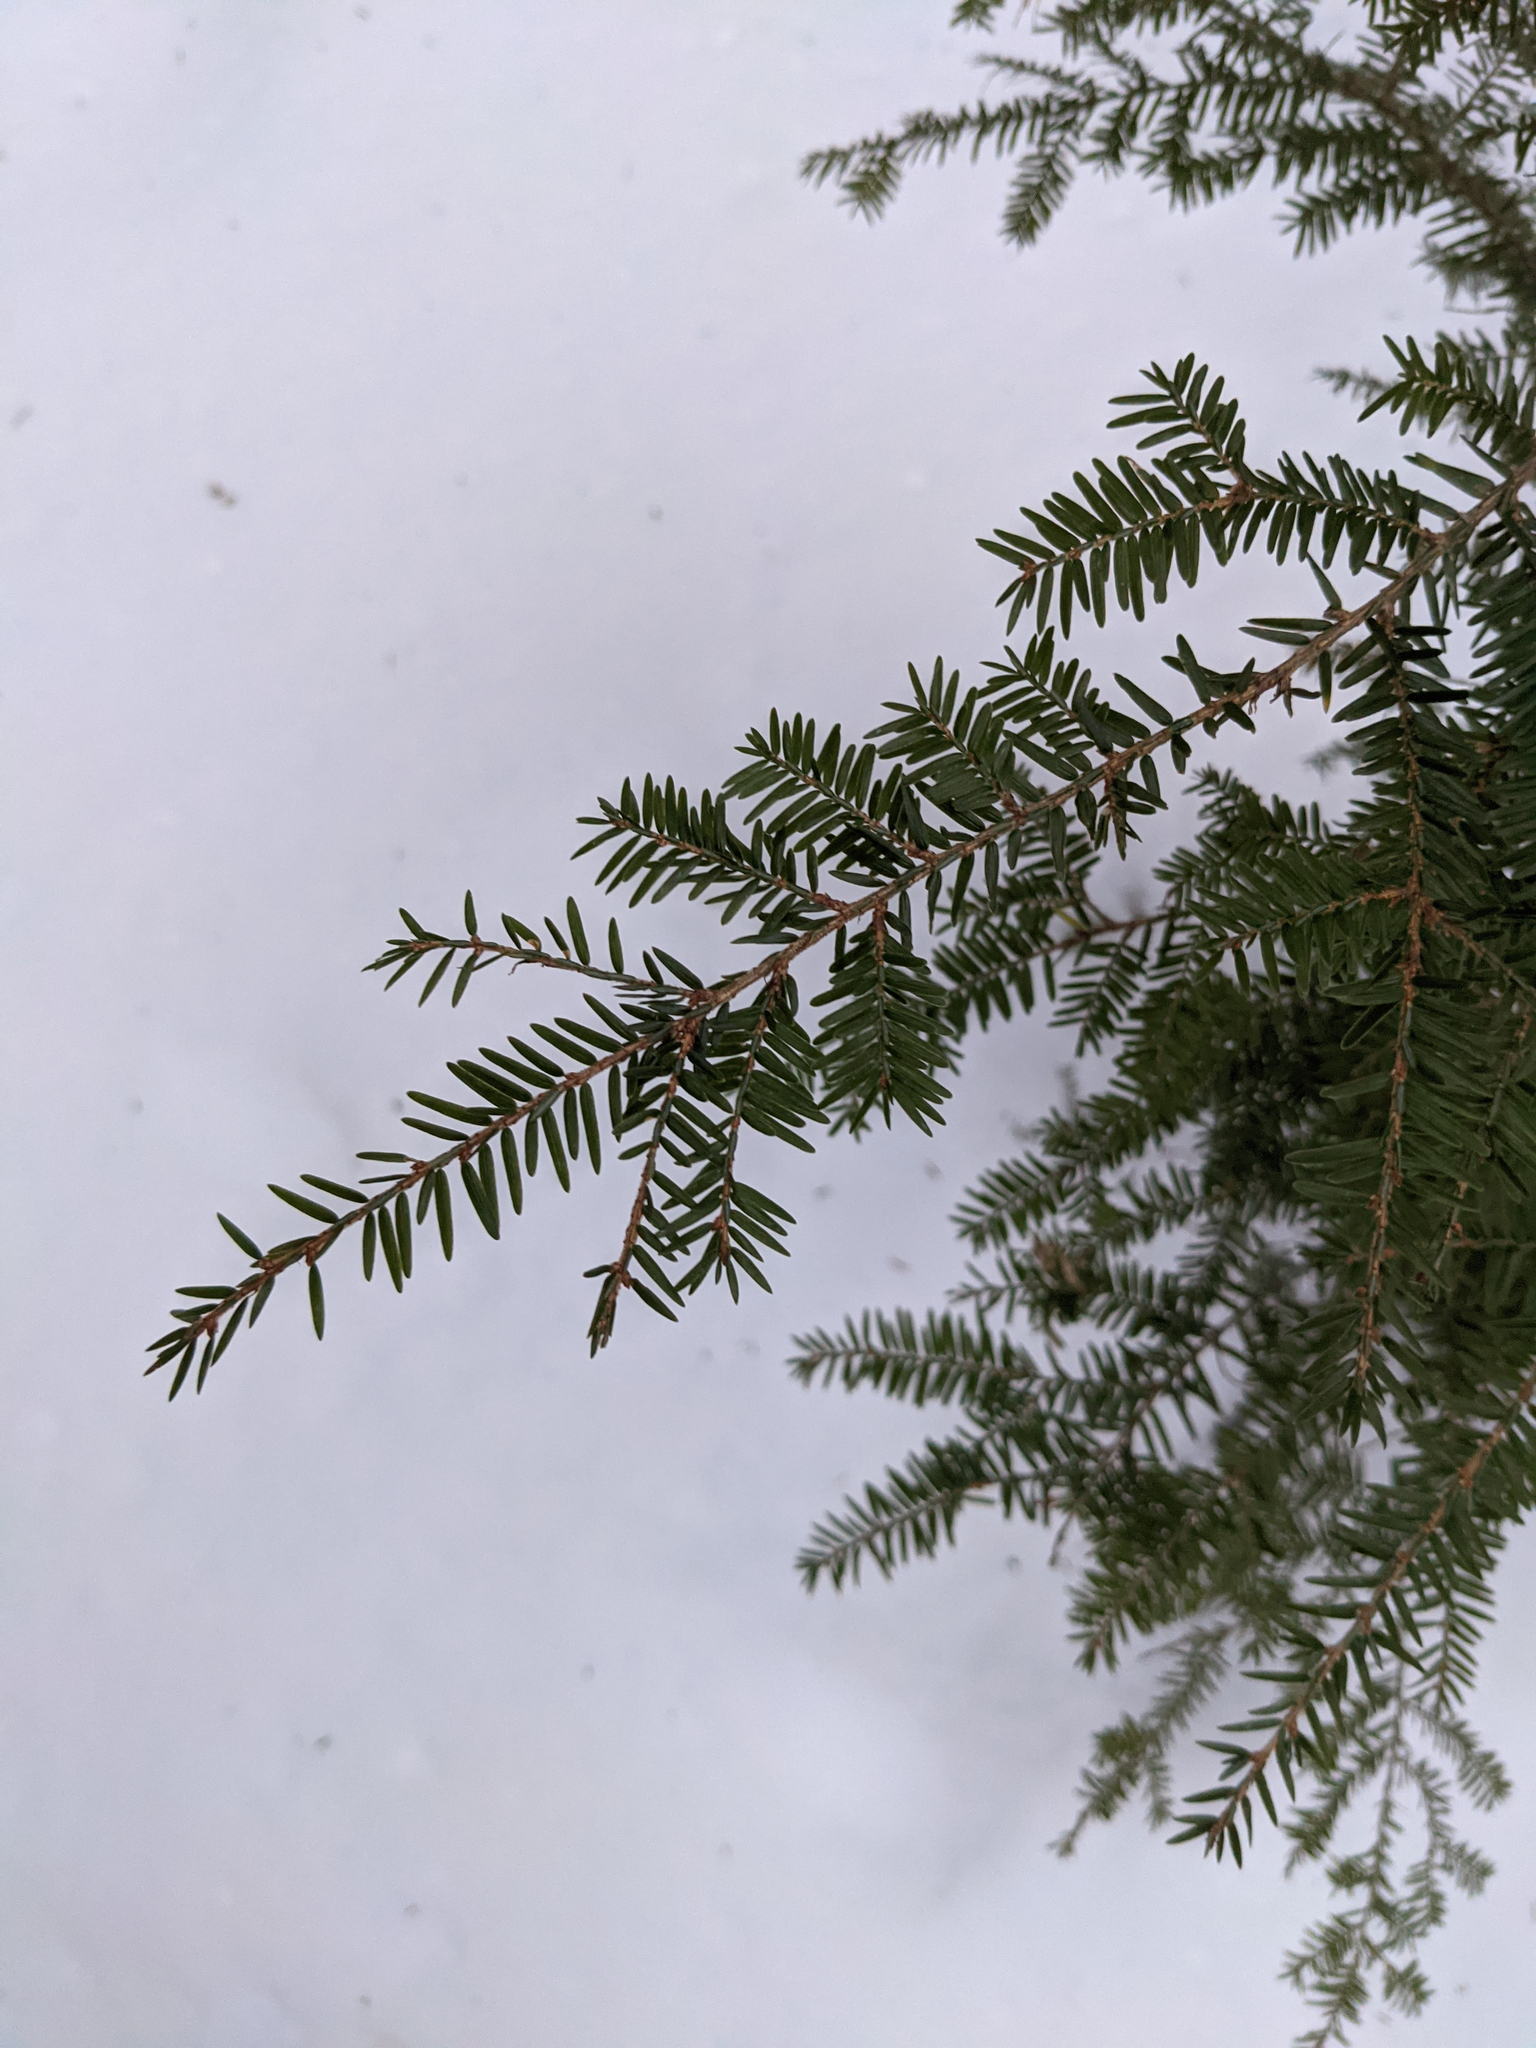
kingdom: Plantae
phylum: Tracheophyta
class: Pinopsida
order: Pinales
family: Pinaceae
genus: Tsuga
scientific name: Tsuga canadensis
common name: Eastern hemlock
